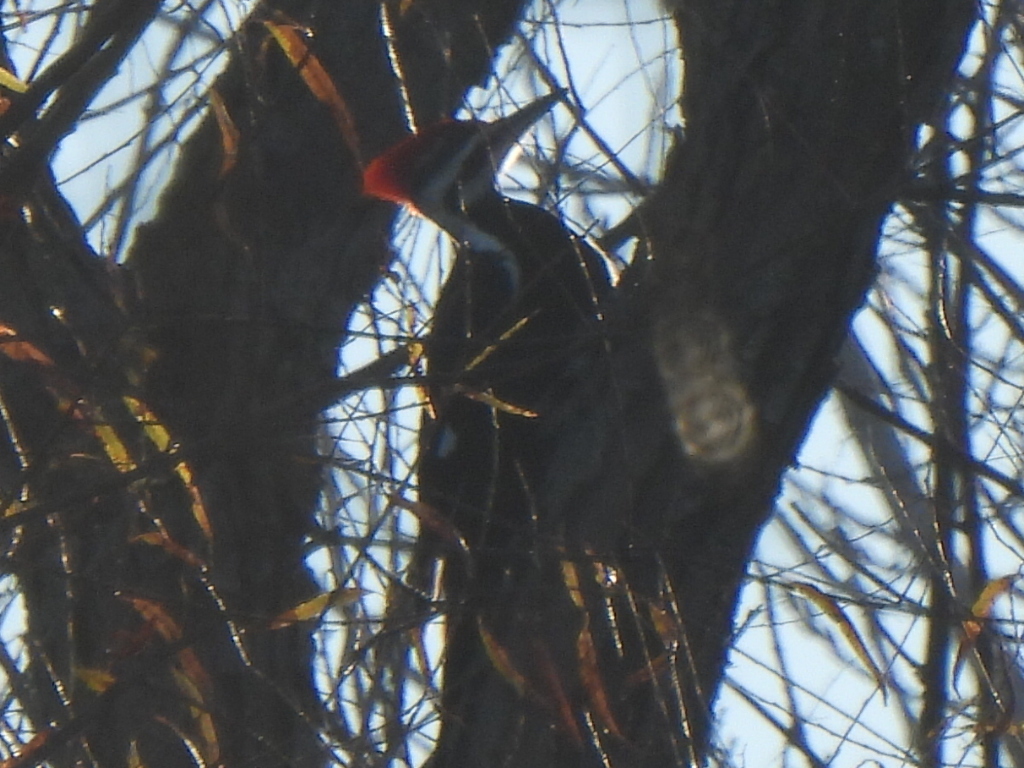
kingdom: Animalia
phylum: Chordata
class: Aves
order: Piciformes
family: Picidae
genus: Dryocopus
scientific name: Dryocopus pileatus
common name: Pileated woodpecker
